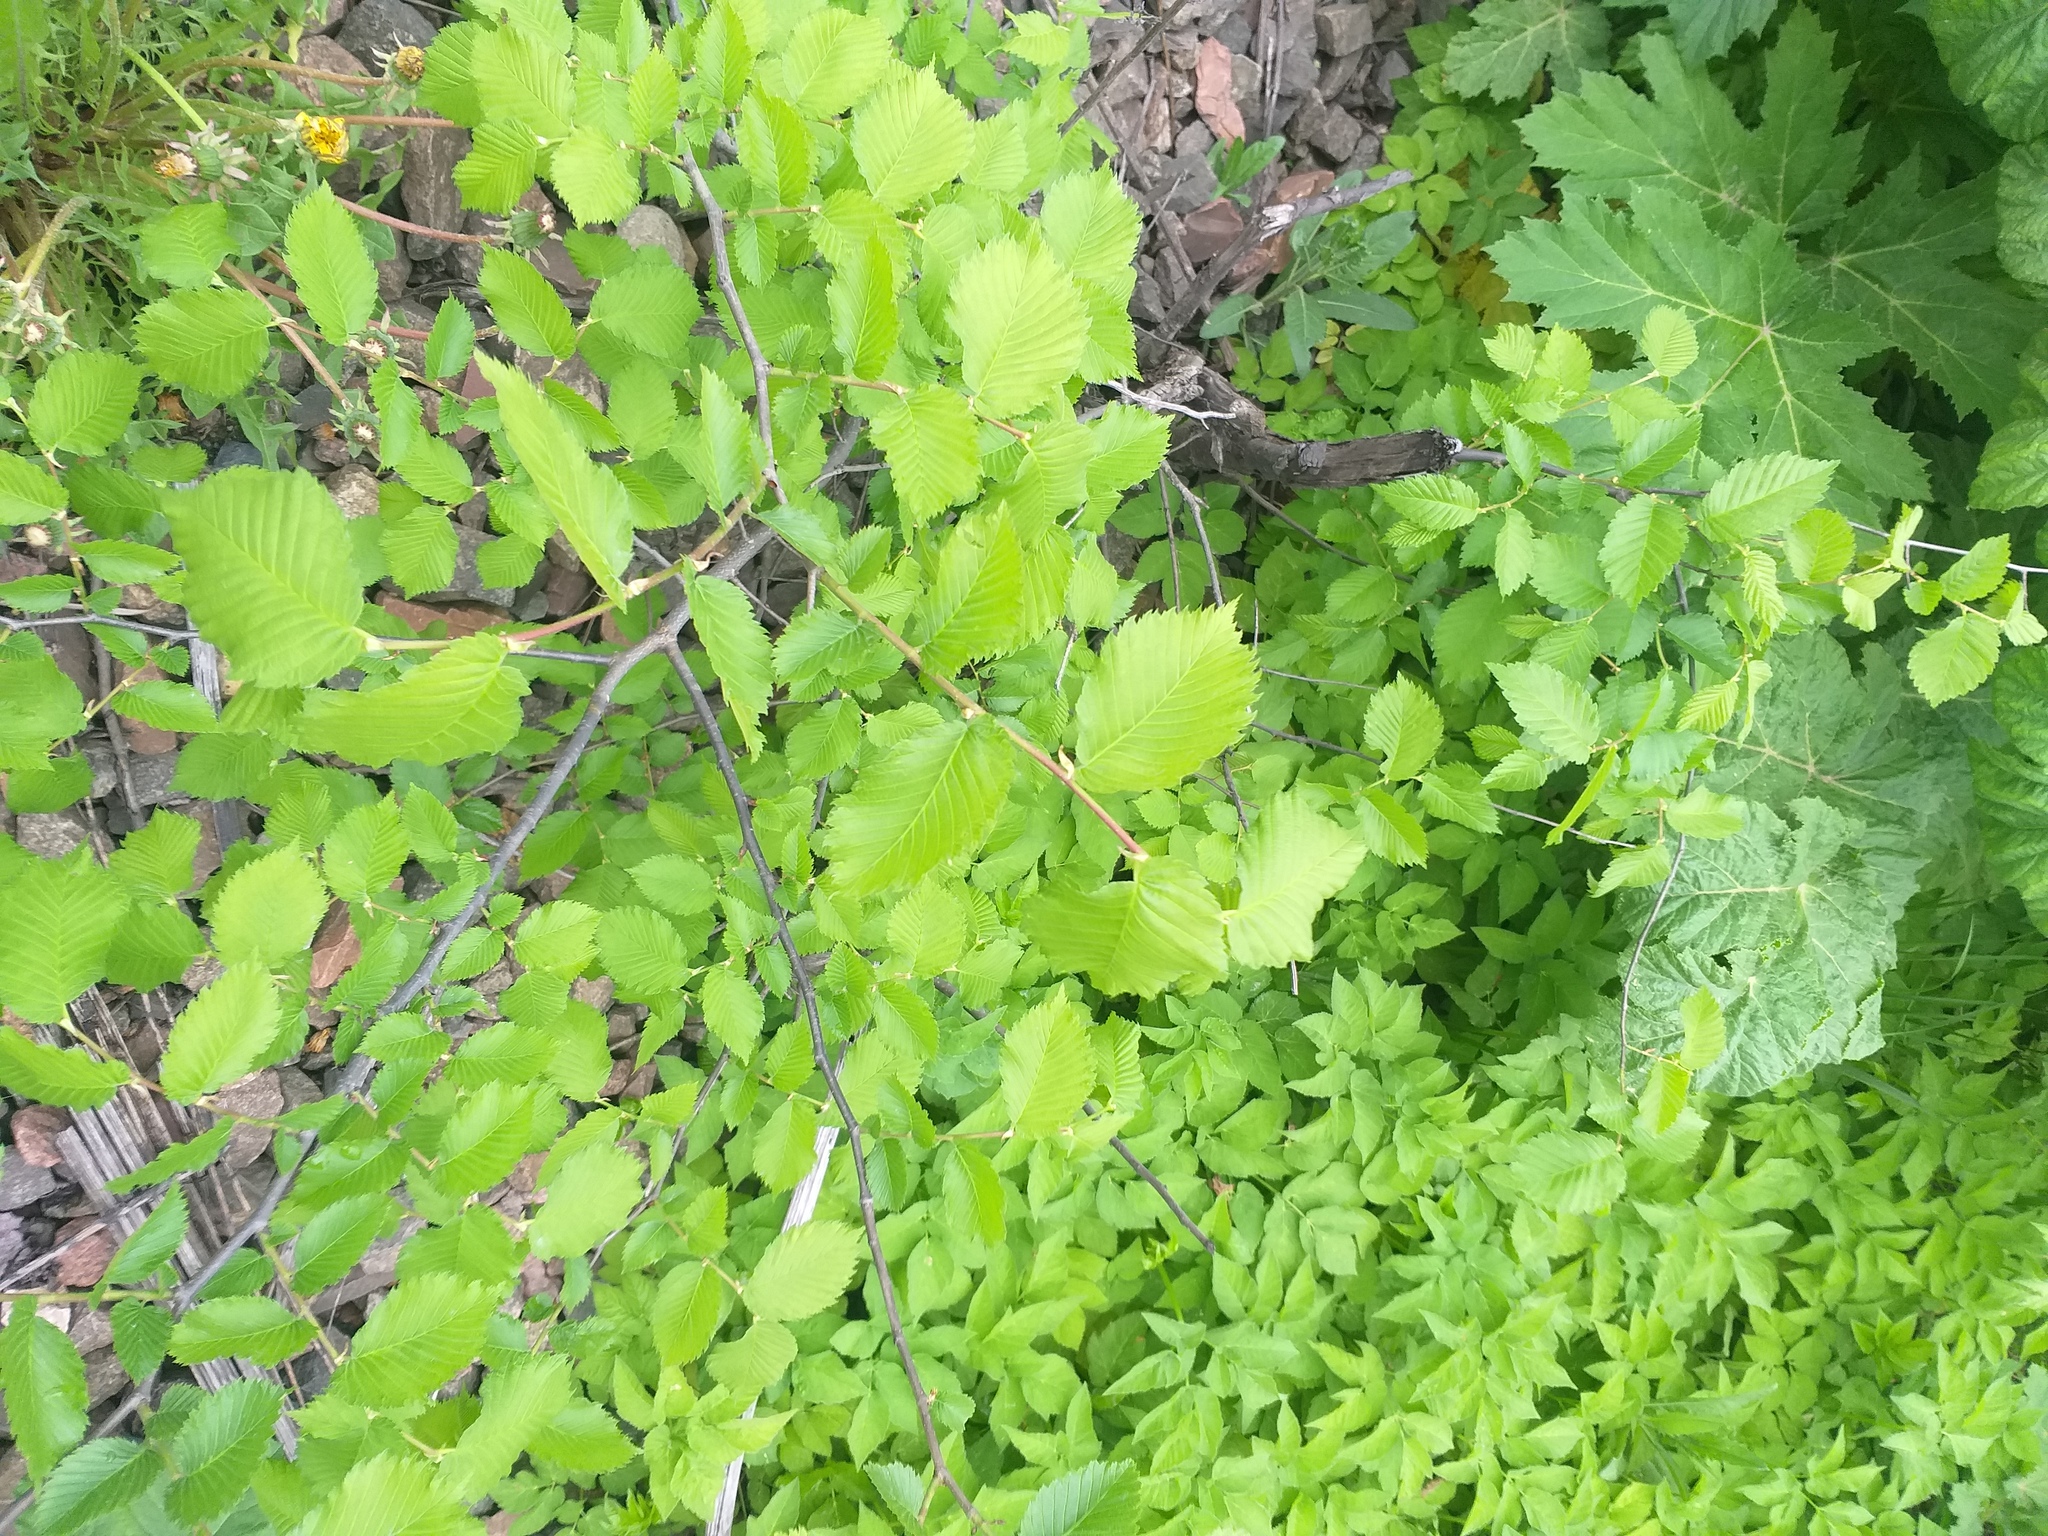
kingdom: Plantae
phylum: Tracheophyta
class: Magnoliopsida
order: Rosales
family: Ulmaceae
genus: Ulmus
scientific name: Ulmus laevis
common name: European white-elm
